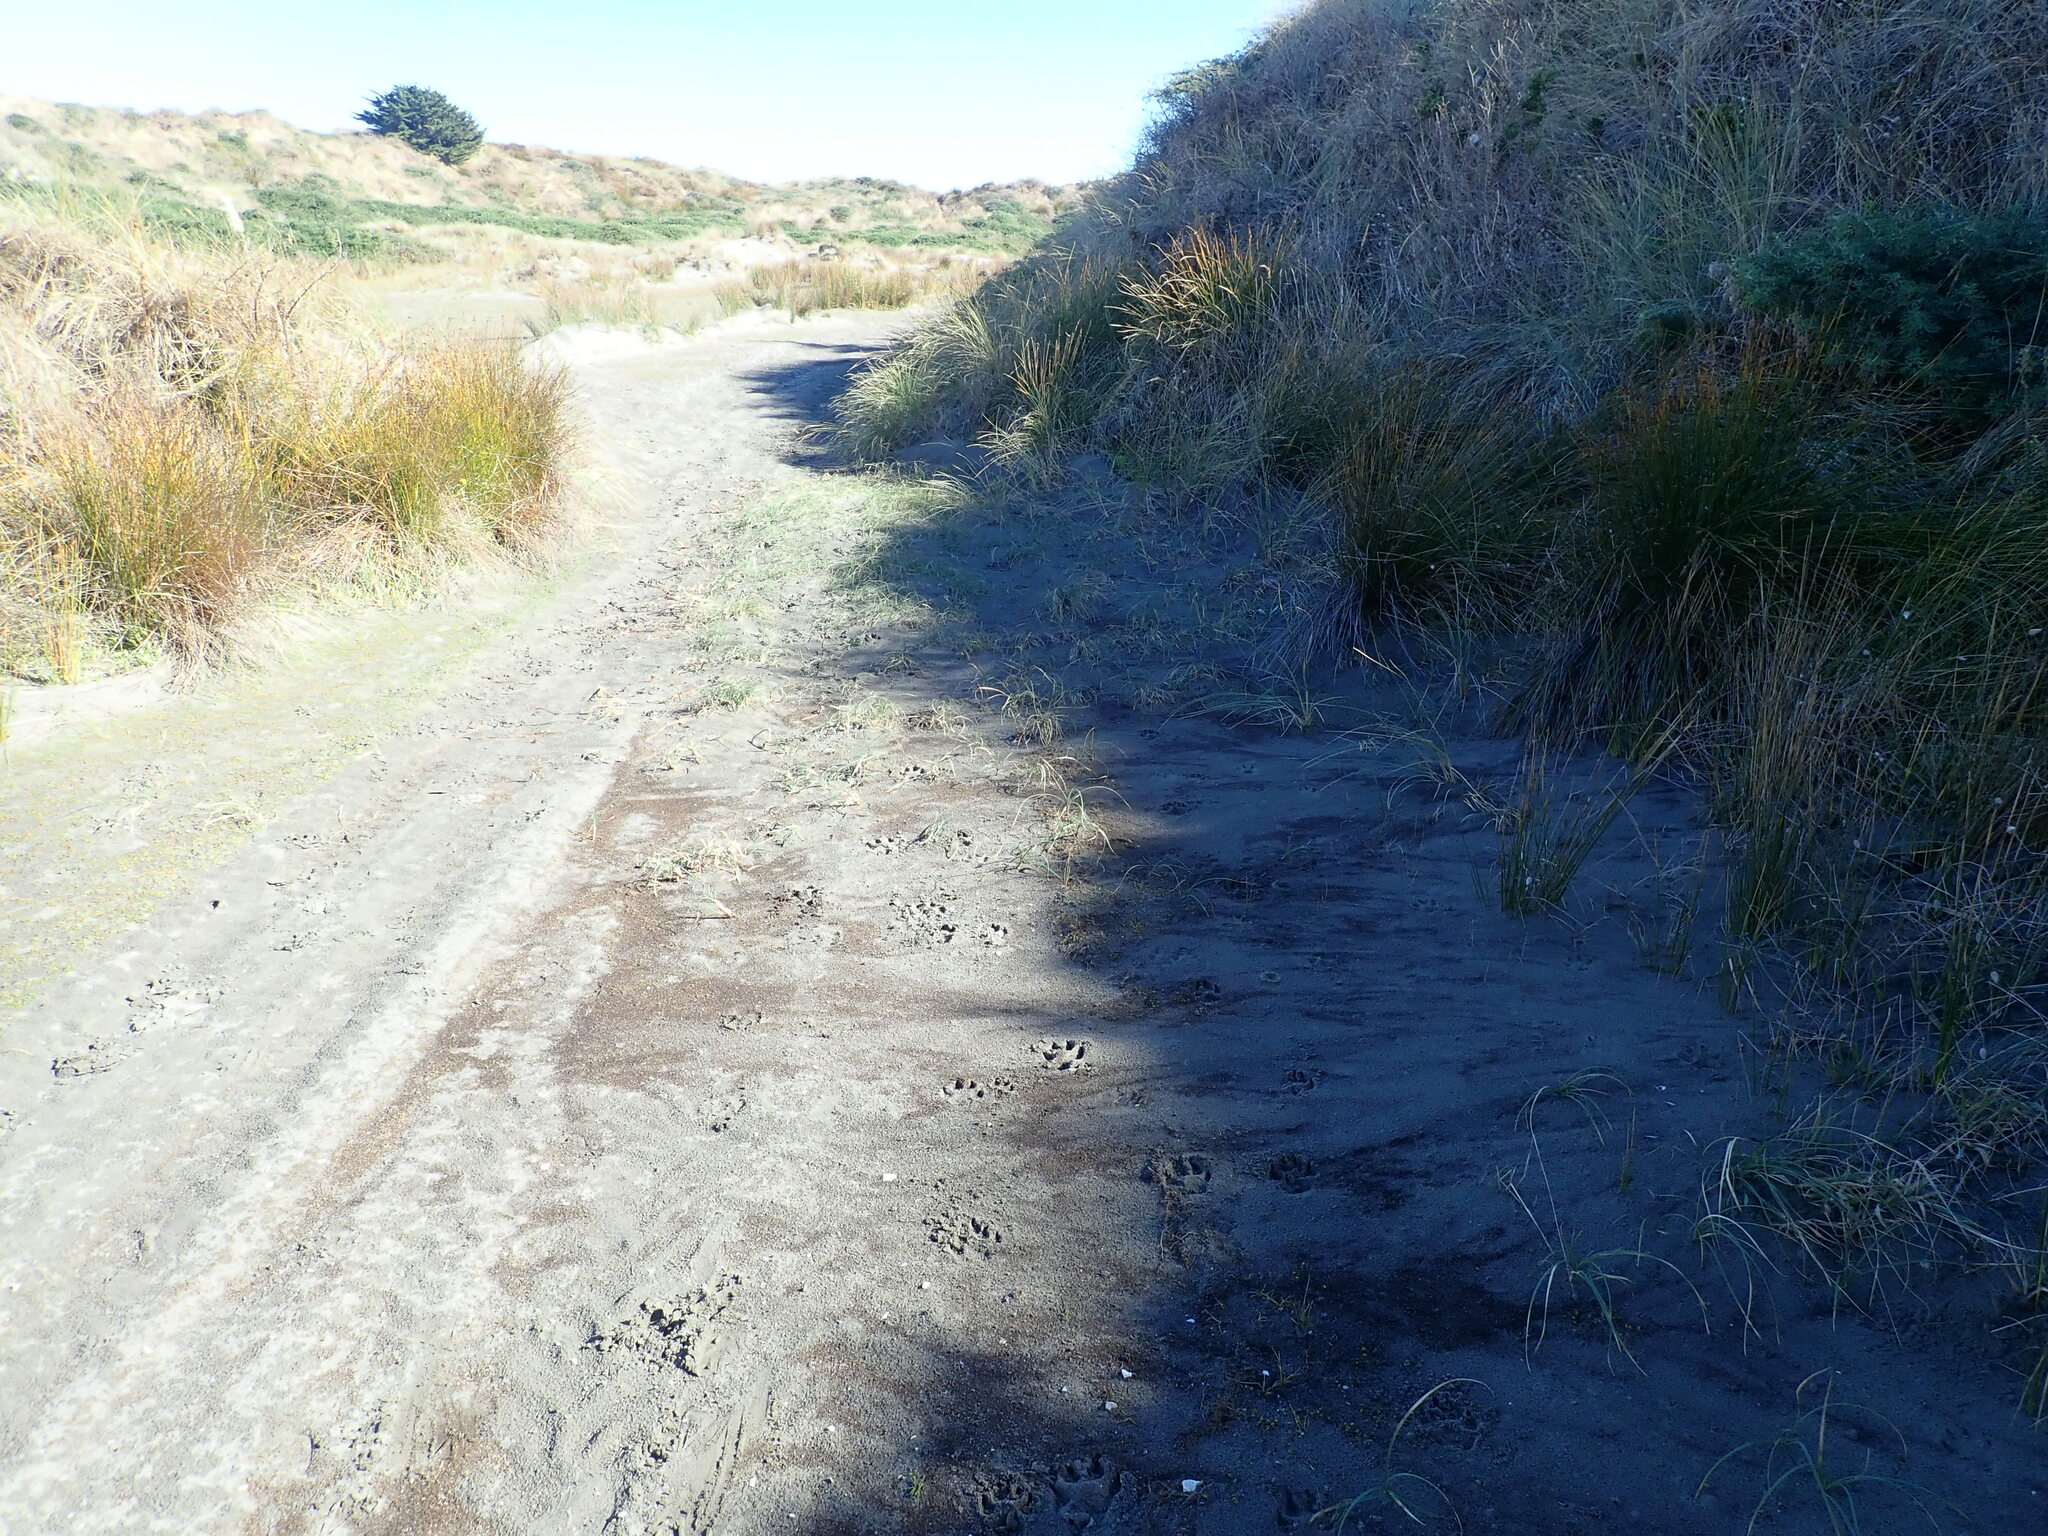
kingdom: Plantae
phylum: Tracheophyta
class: Liliopsida
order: Poales
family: Cyperaceae
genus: Carex
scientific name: Carex pumila
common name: Dwarf sedge
